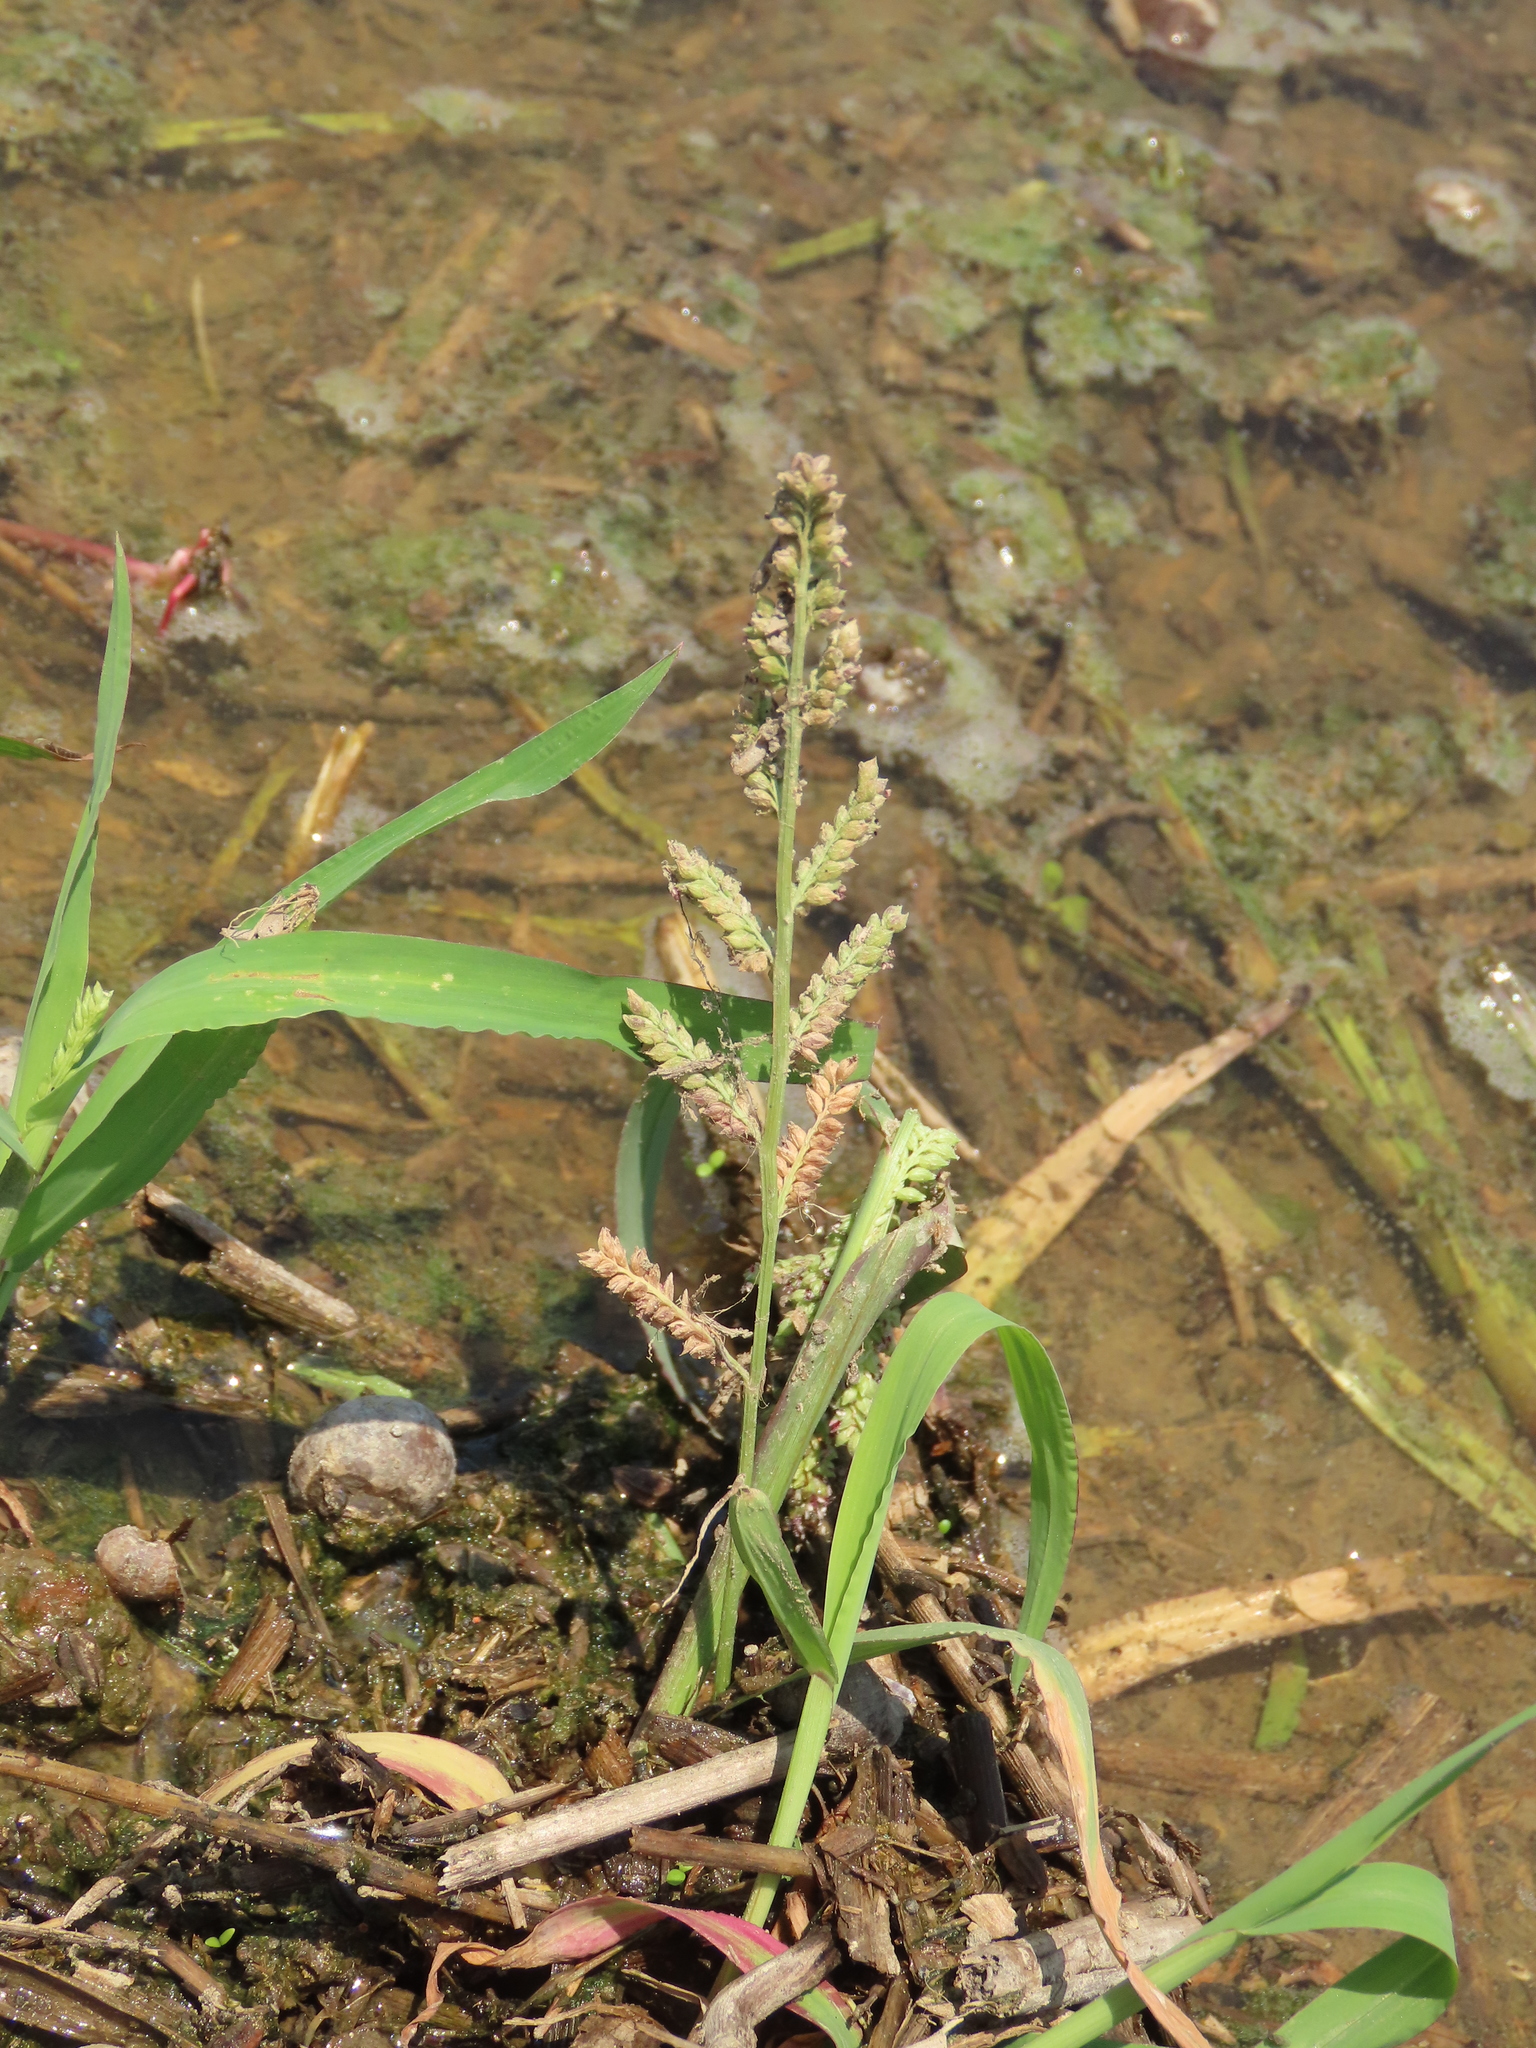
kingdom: Plantae
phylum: Tracheophyta
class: Liliopsida
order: Poales
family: Poaceae
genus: Echinochloa
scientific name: Echinochloa colonum
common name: Jungle rice
